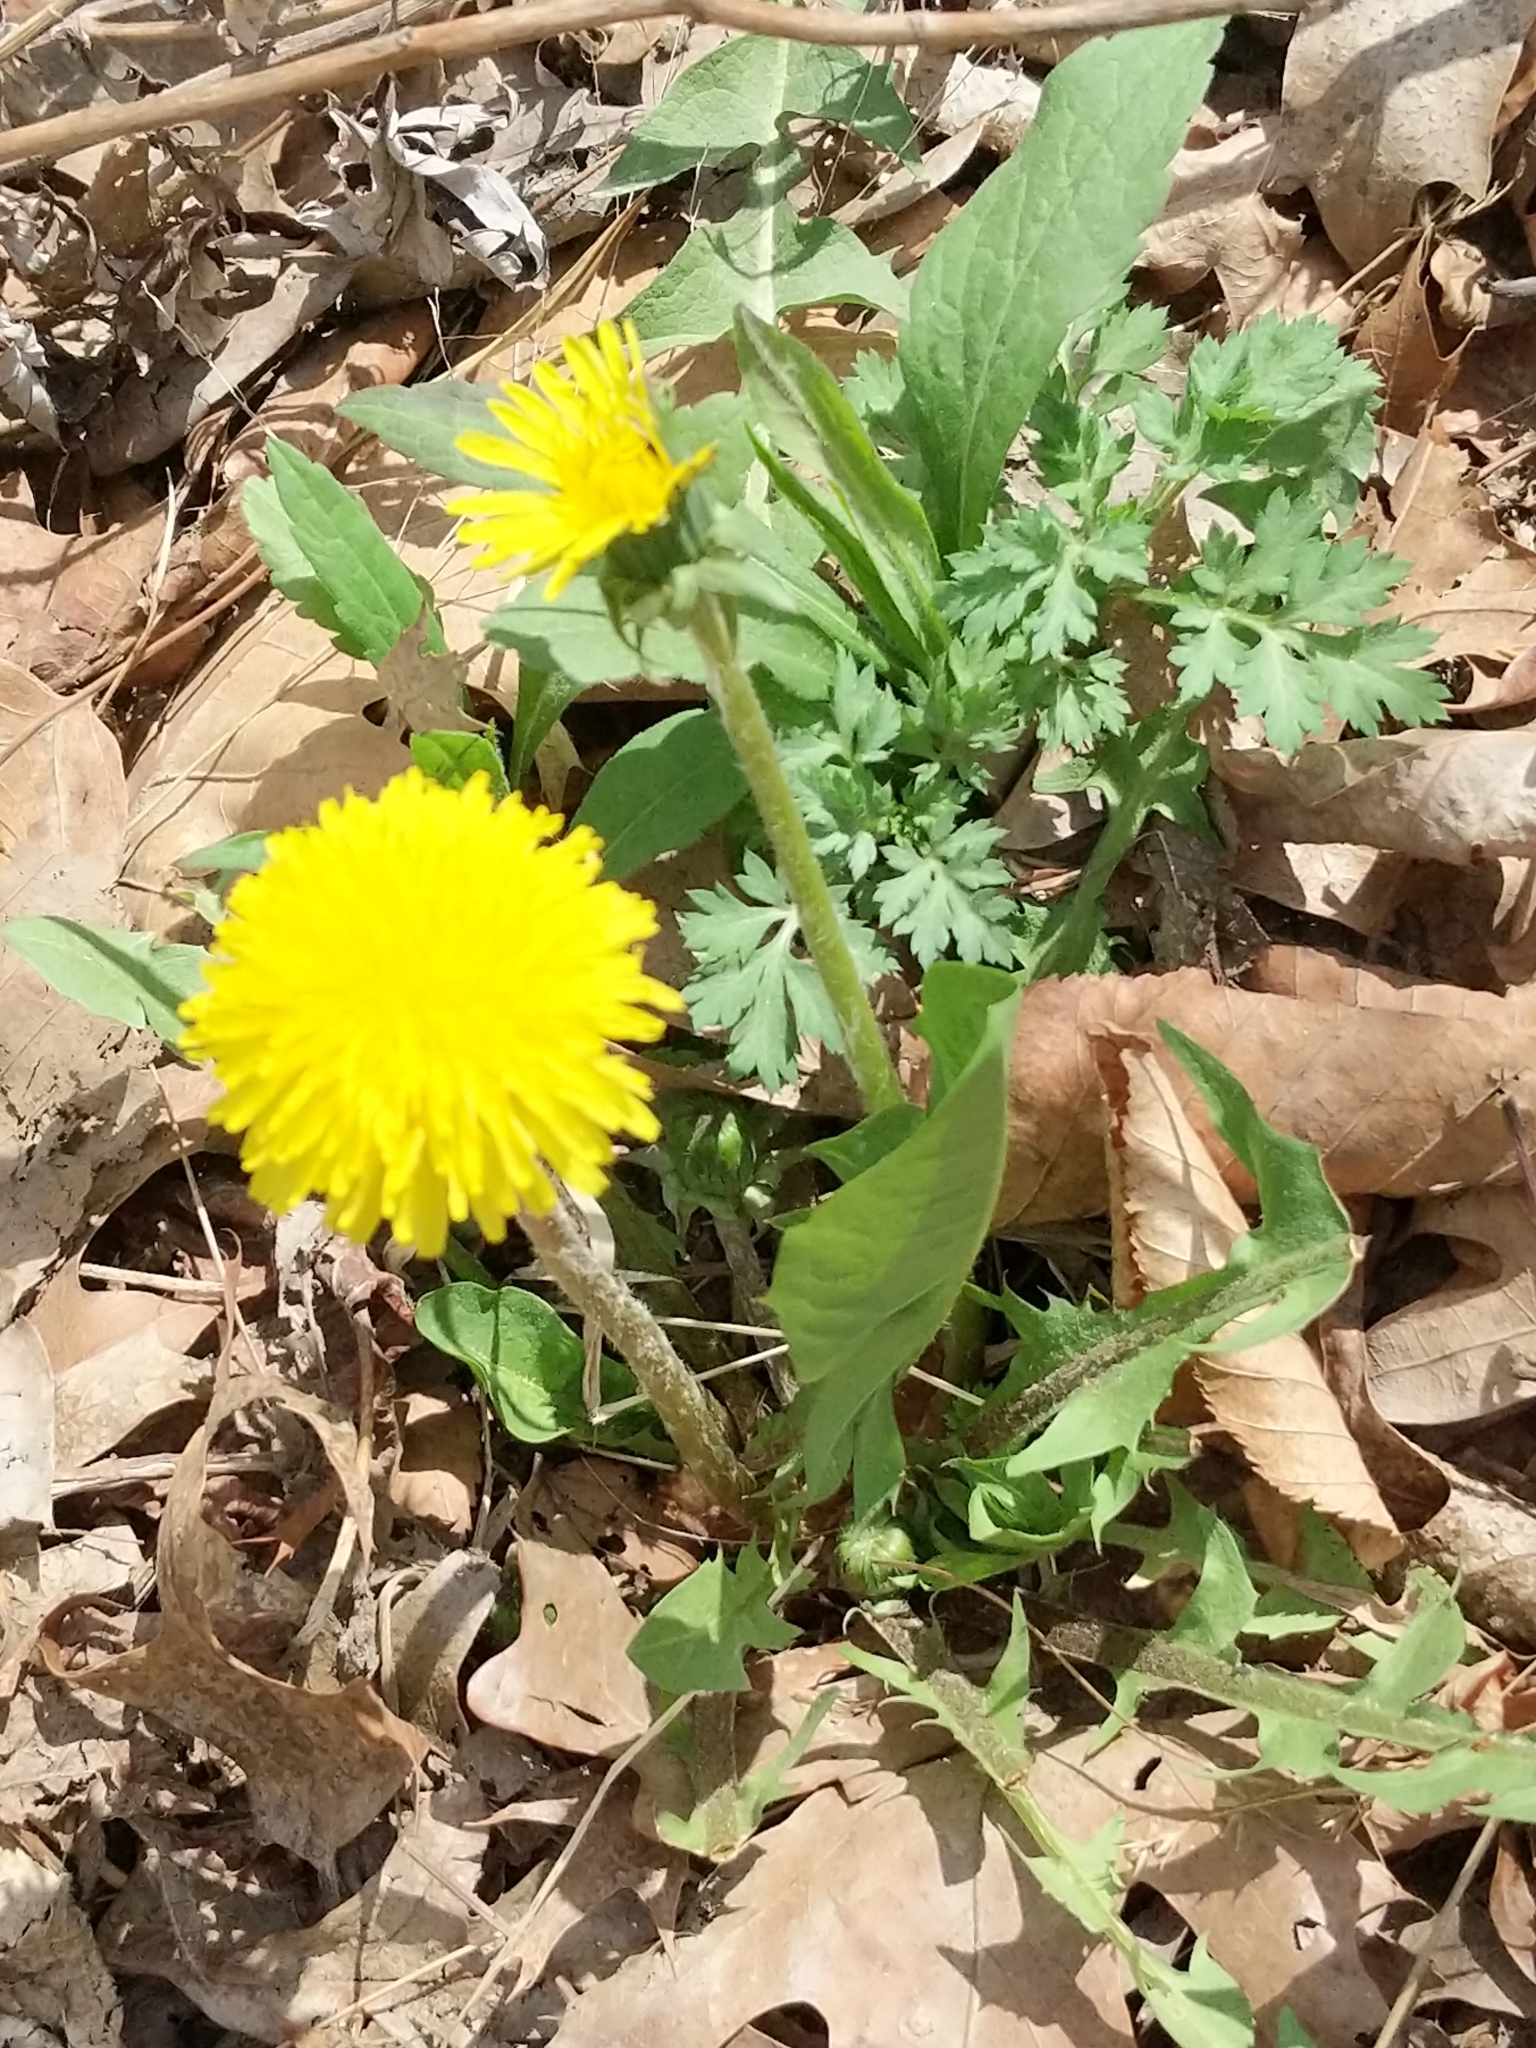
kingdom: Plantae
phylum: Tracheophyta
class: Magnoliopsida
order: Asterales
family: Asteraceae
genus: Taraxacum
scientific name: Taraxacum
